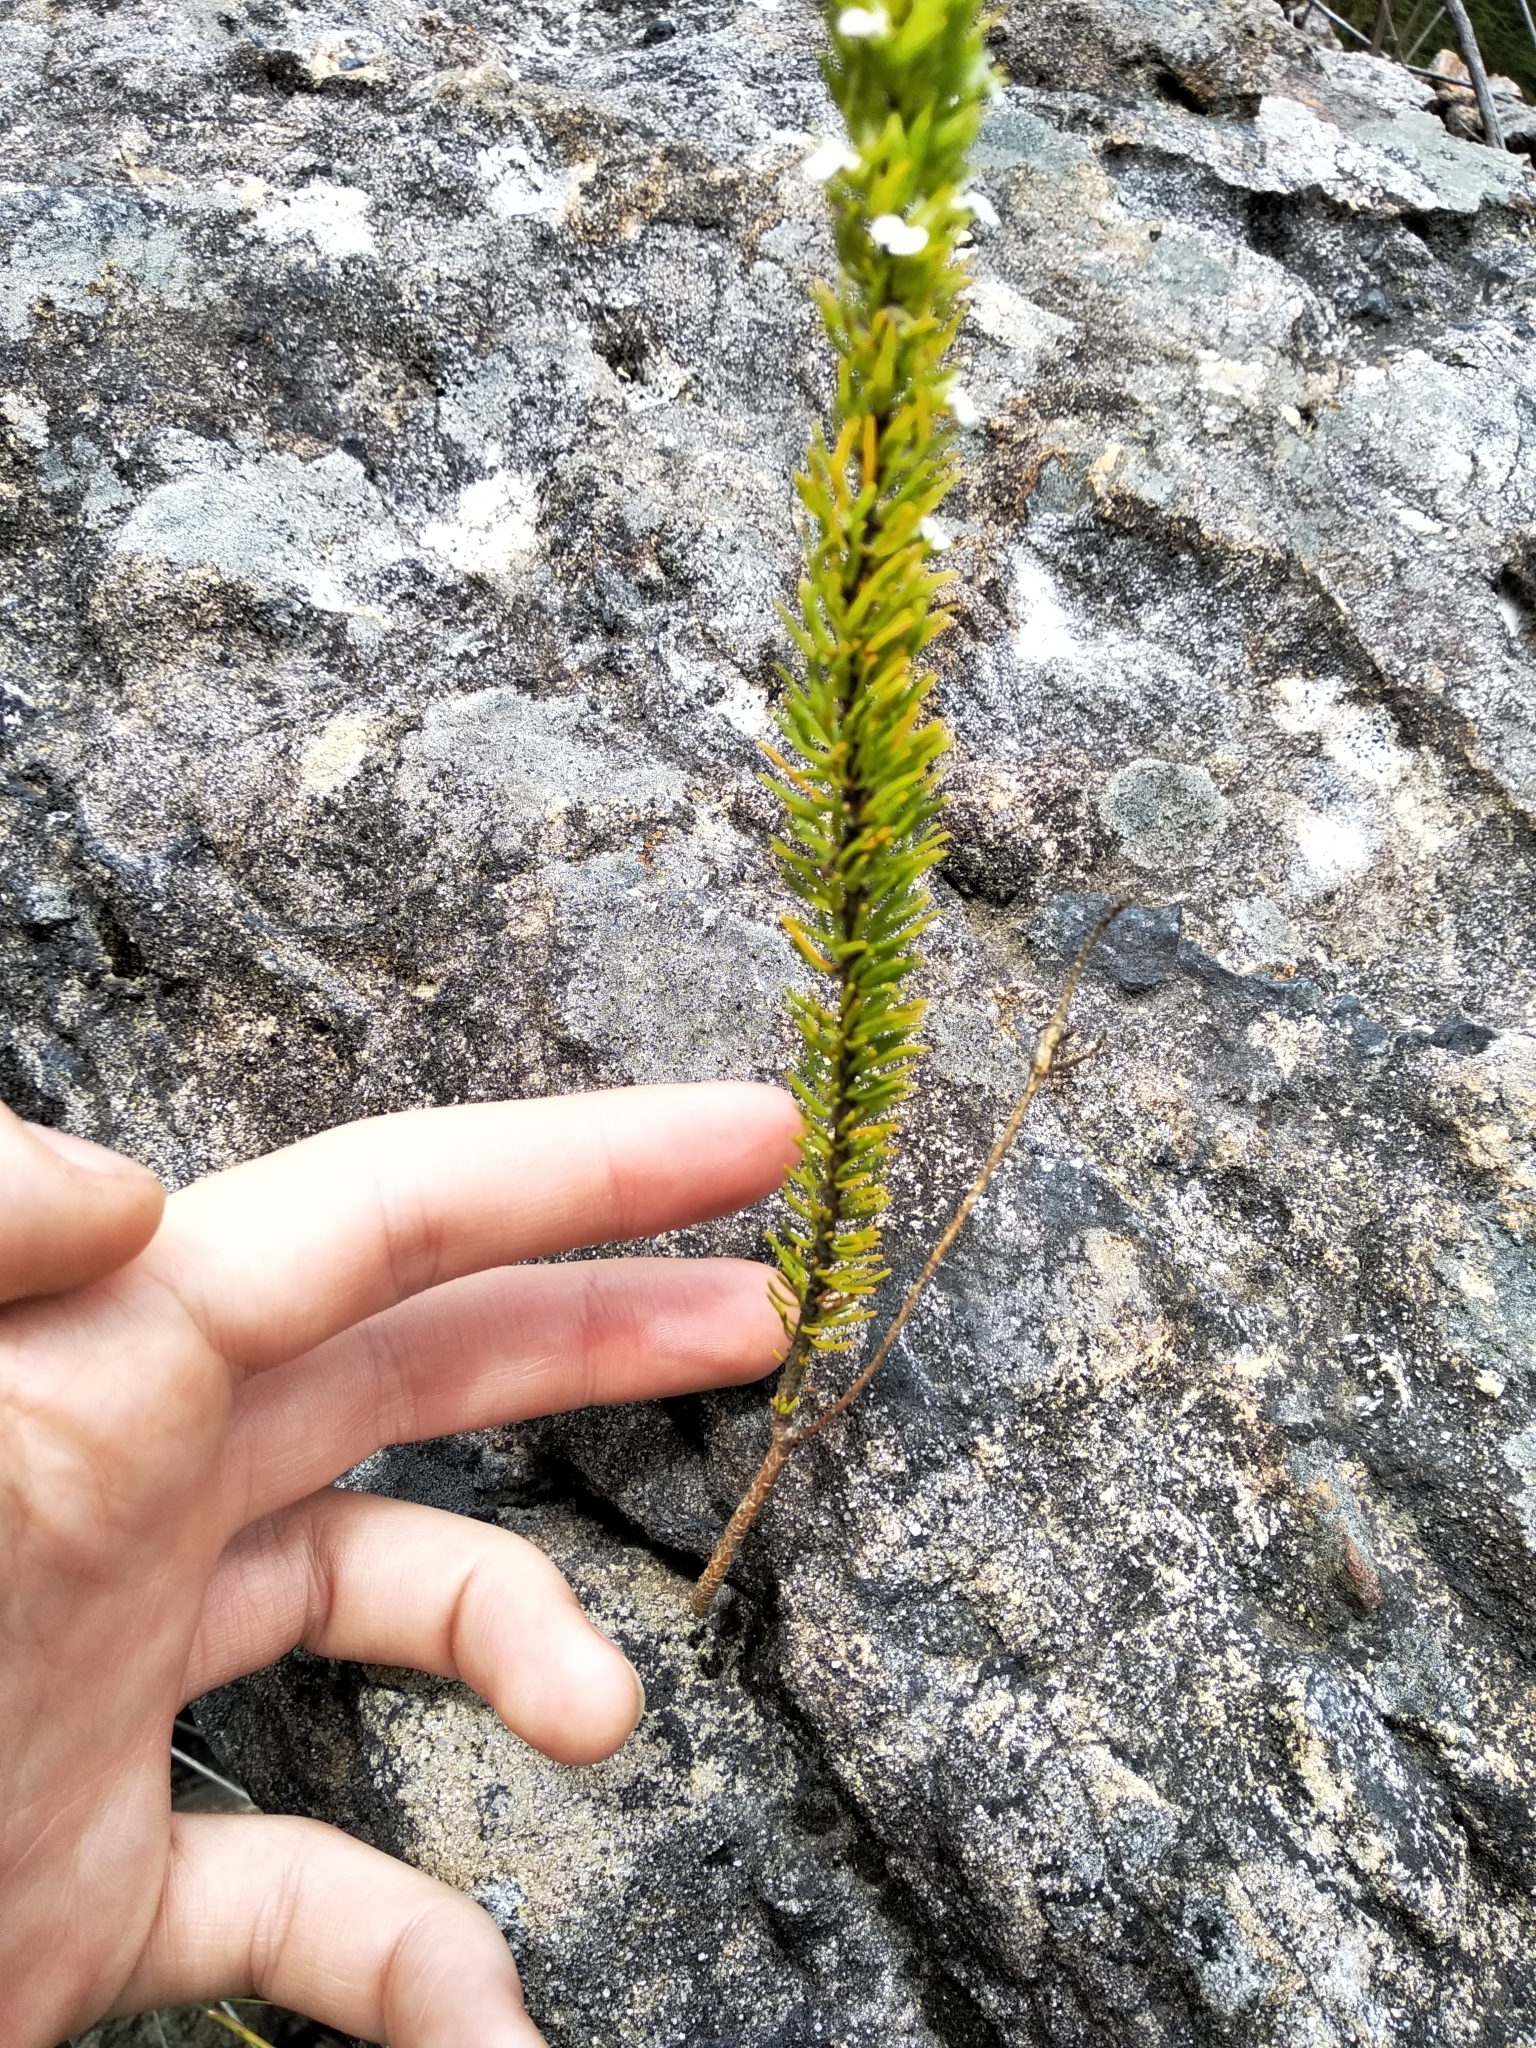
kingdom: Plantae
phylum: Tracheophyta
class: Magnoliopsida
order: Fabales
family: Polygalaceae
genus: Muraltia
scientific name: Muraltia alba
